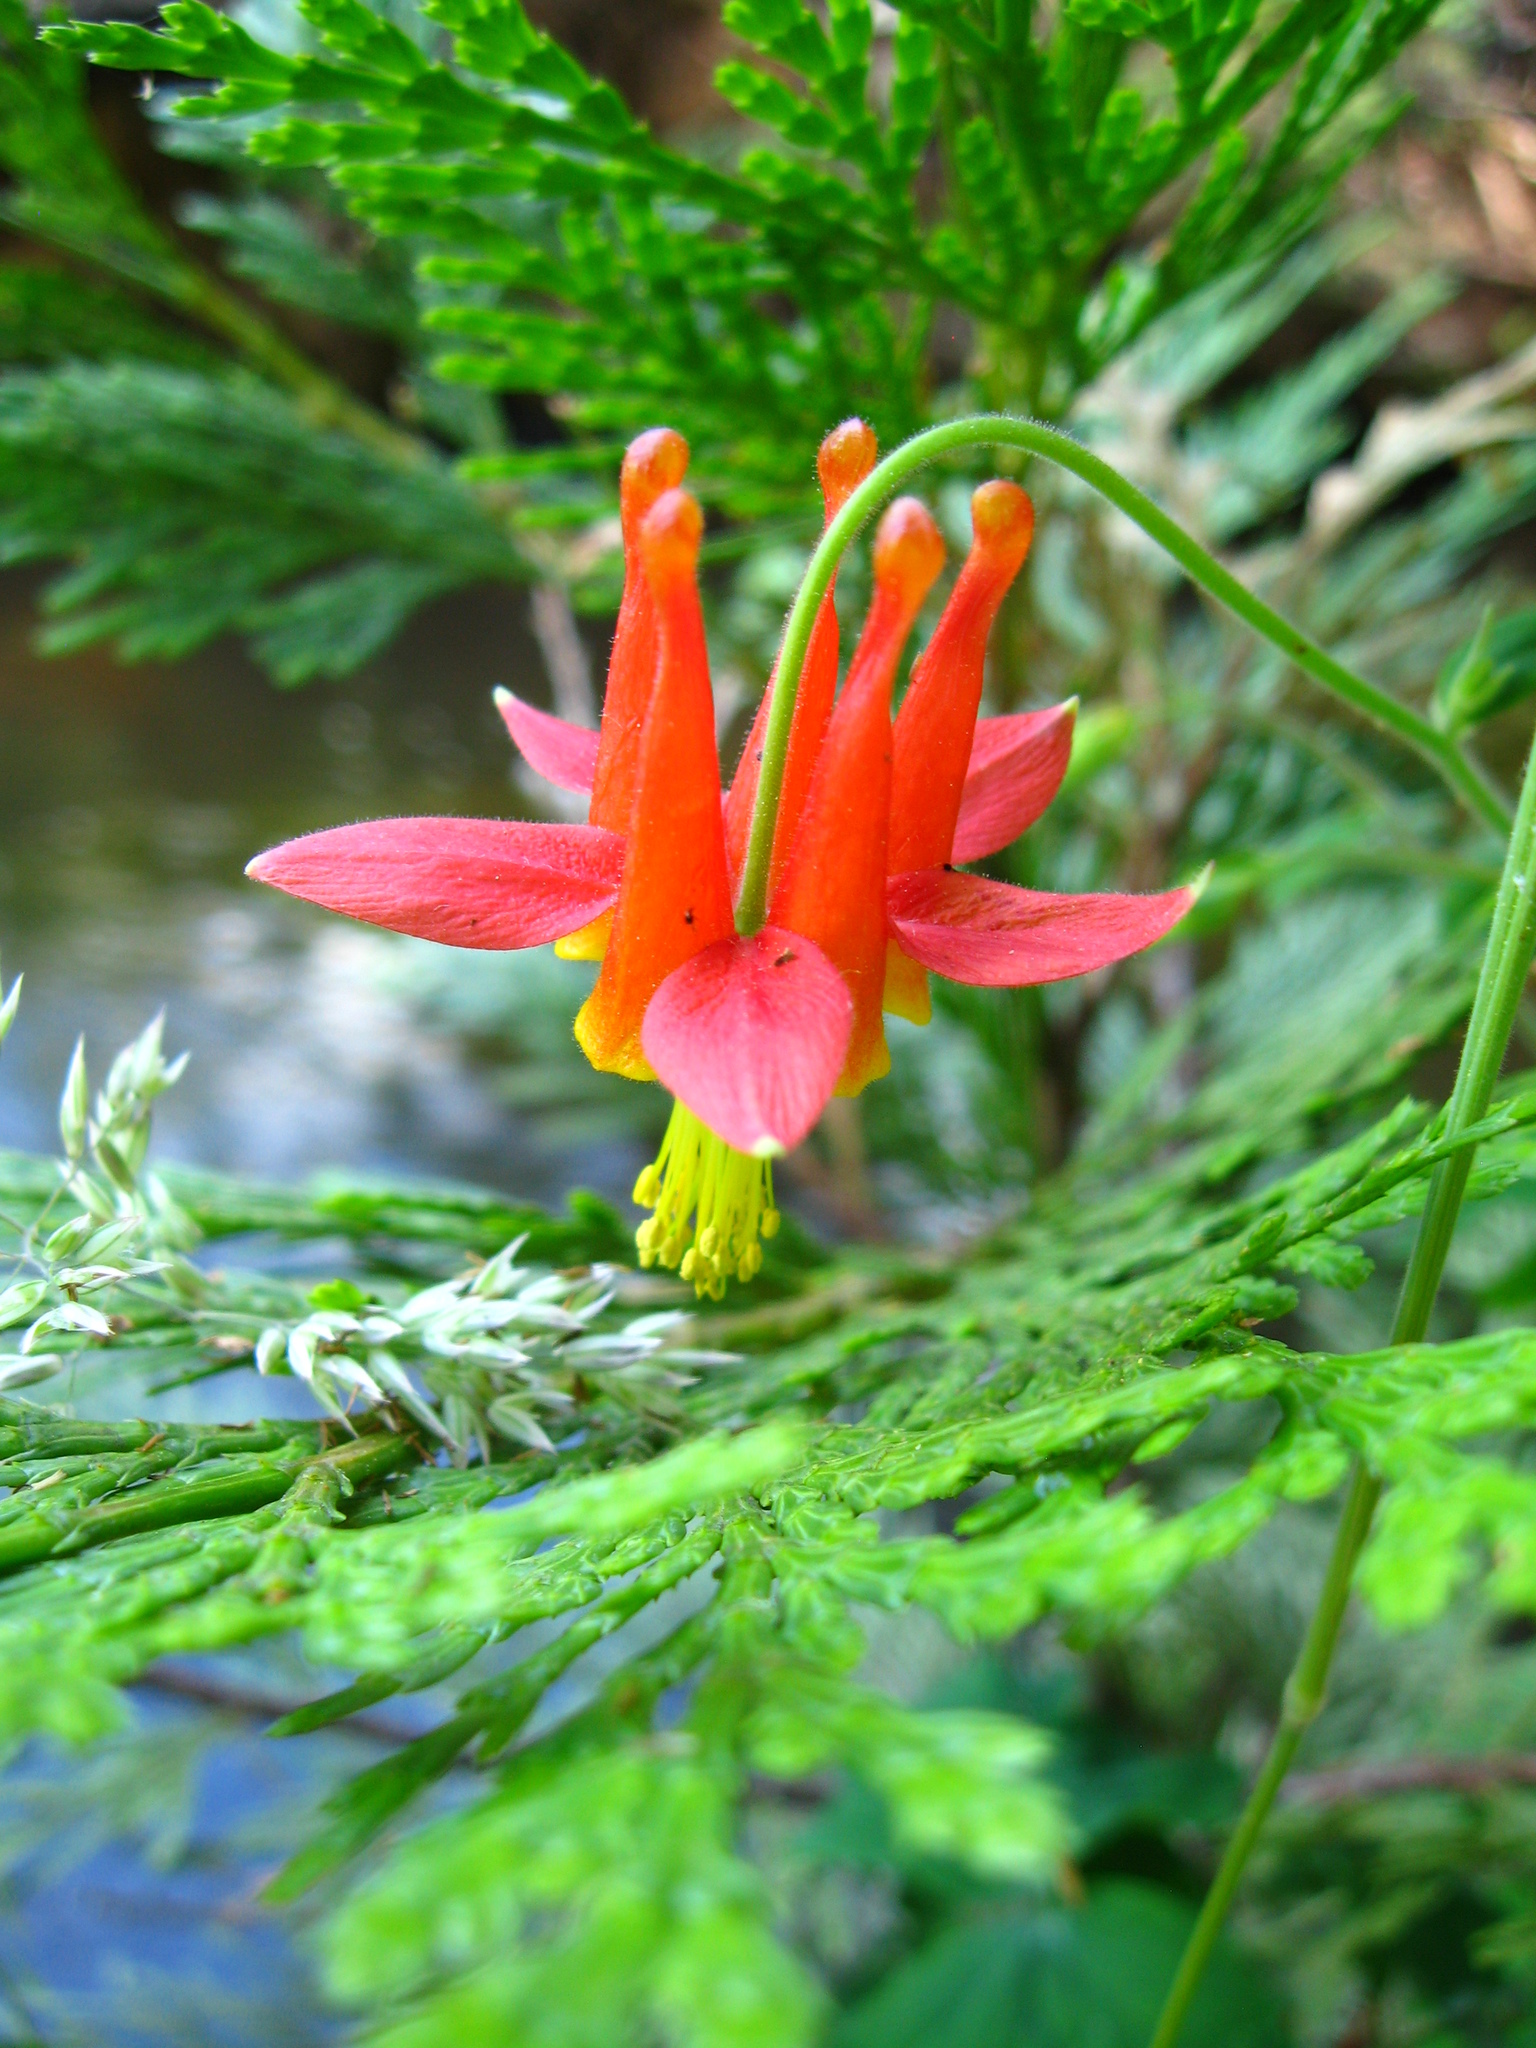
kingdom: Plantae
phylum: Tracheophyta
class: Magnoliopsida
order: Ranunculales
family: Ranunculaceae
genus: Aquilegia
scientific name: Aquilegia formosa
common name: Sitka columbine
